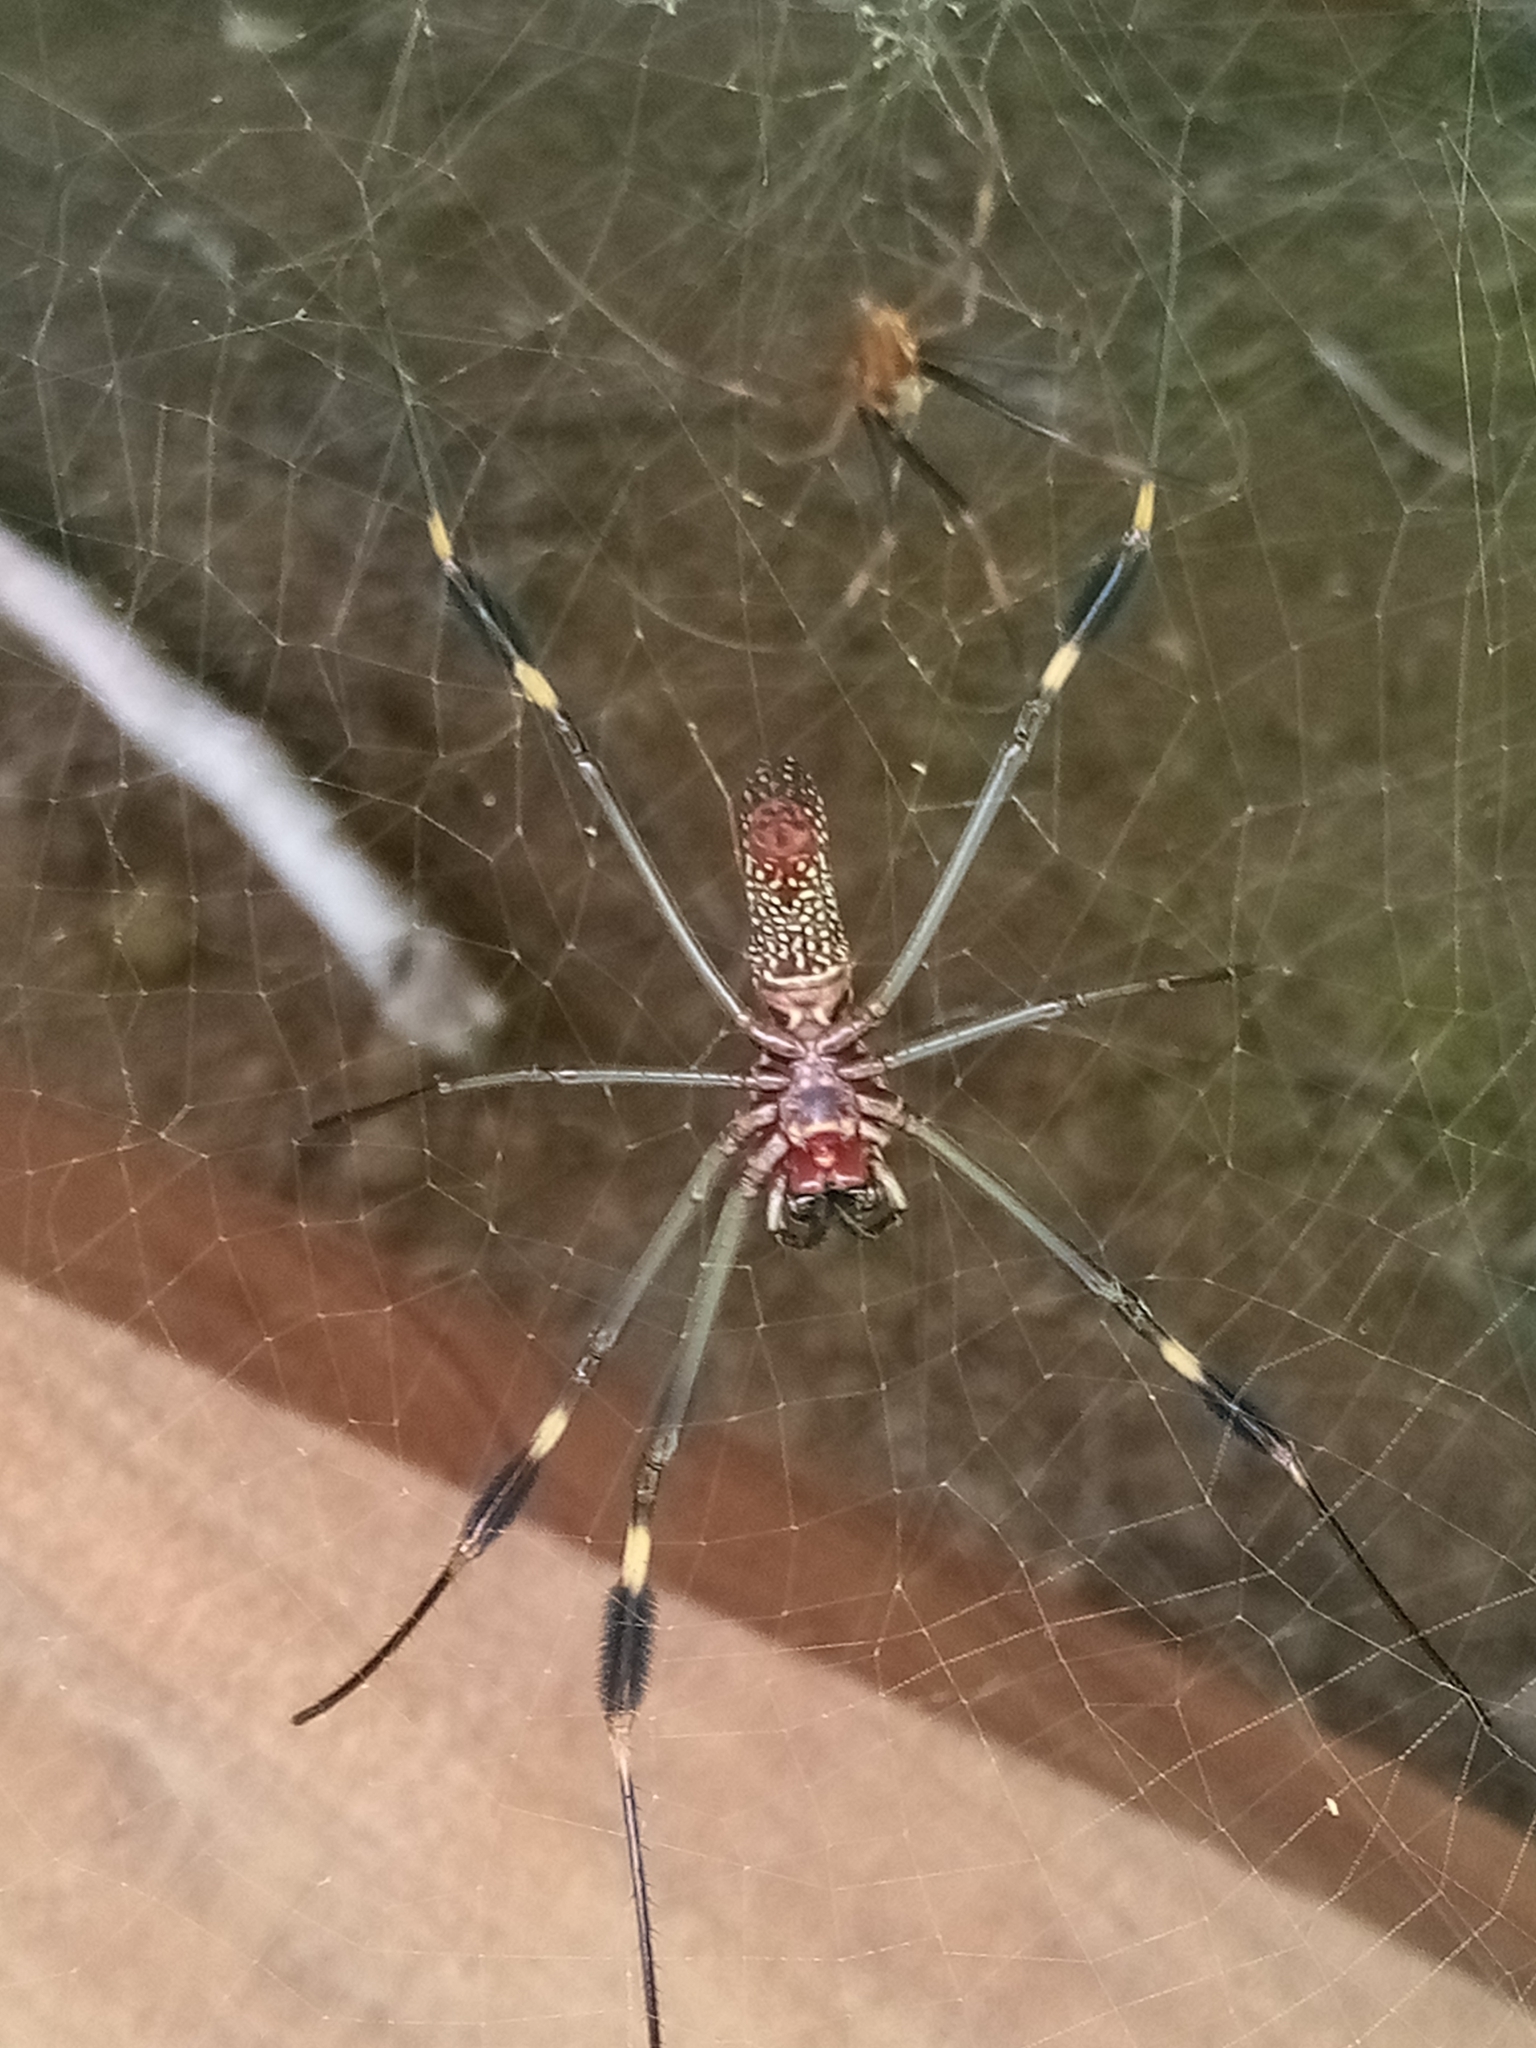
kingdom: Animalia
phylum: Arthropoda
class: Arachnida
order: Araneae
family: Araneidae
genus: Trichonephila
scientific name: Trichonephila clavipes
